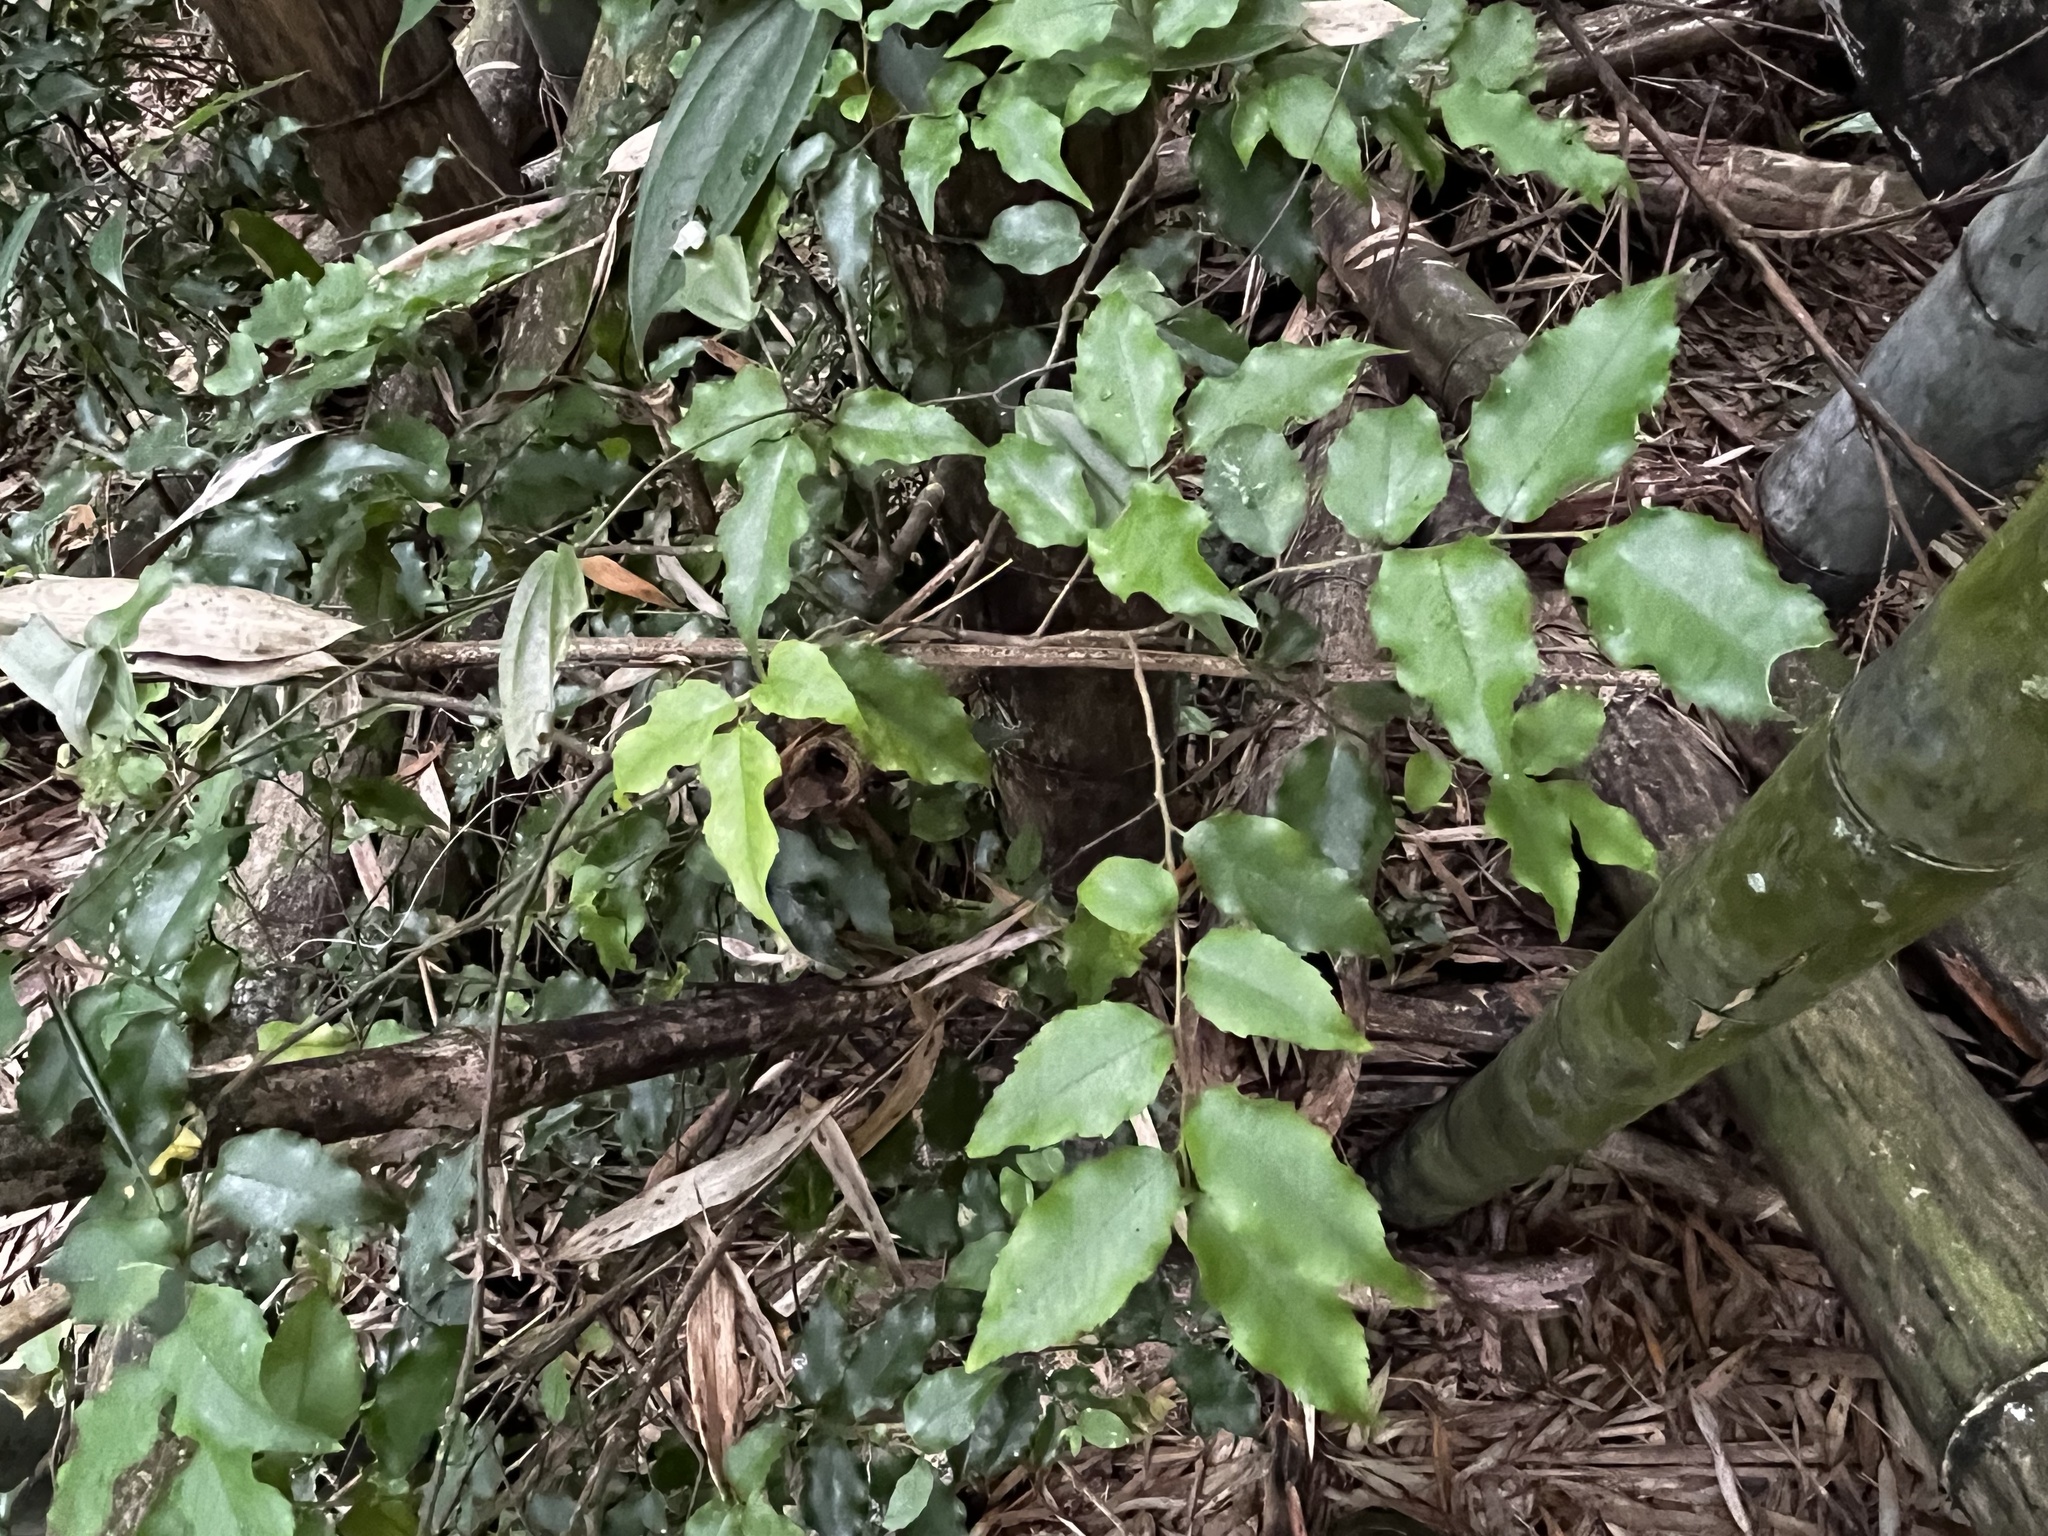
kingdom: Plantae
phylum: Tracheophyta
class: Magnoliopsida
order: Ericales
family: Symplocaceae
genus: Symplocos
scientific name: Symplocos sumuntia
